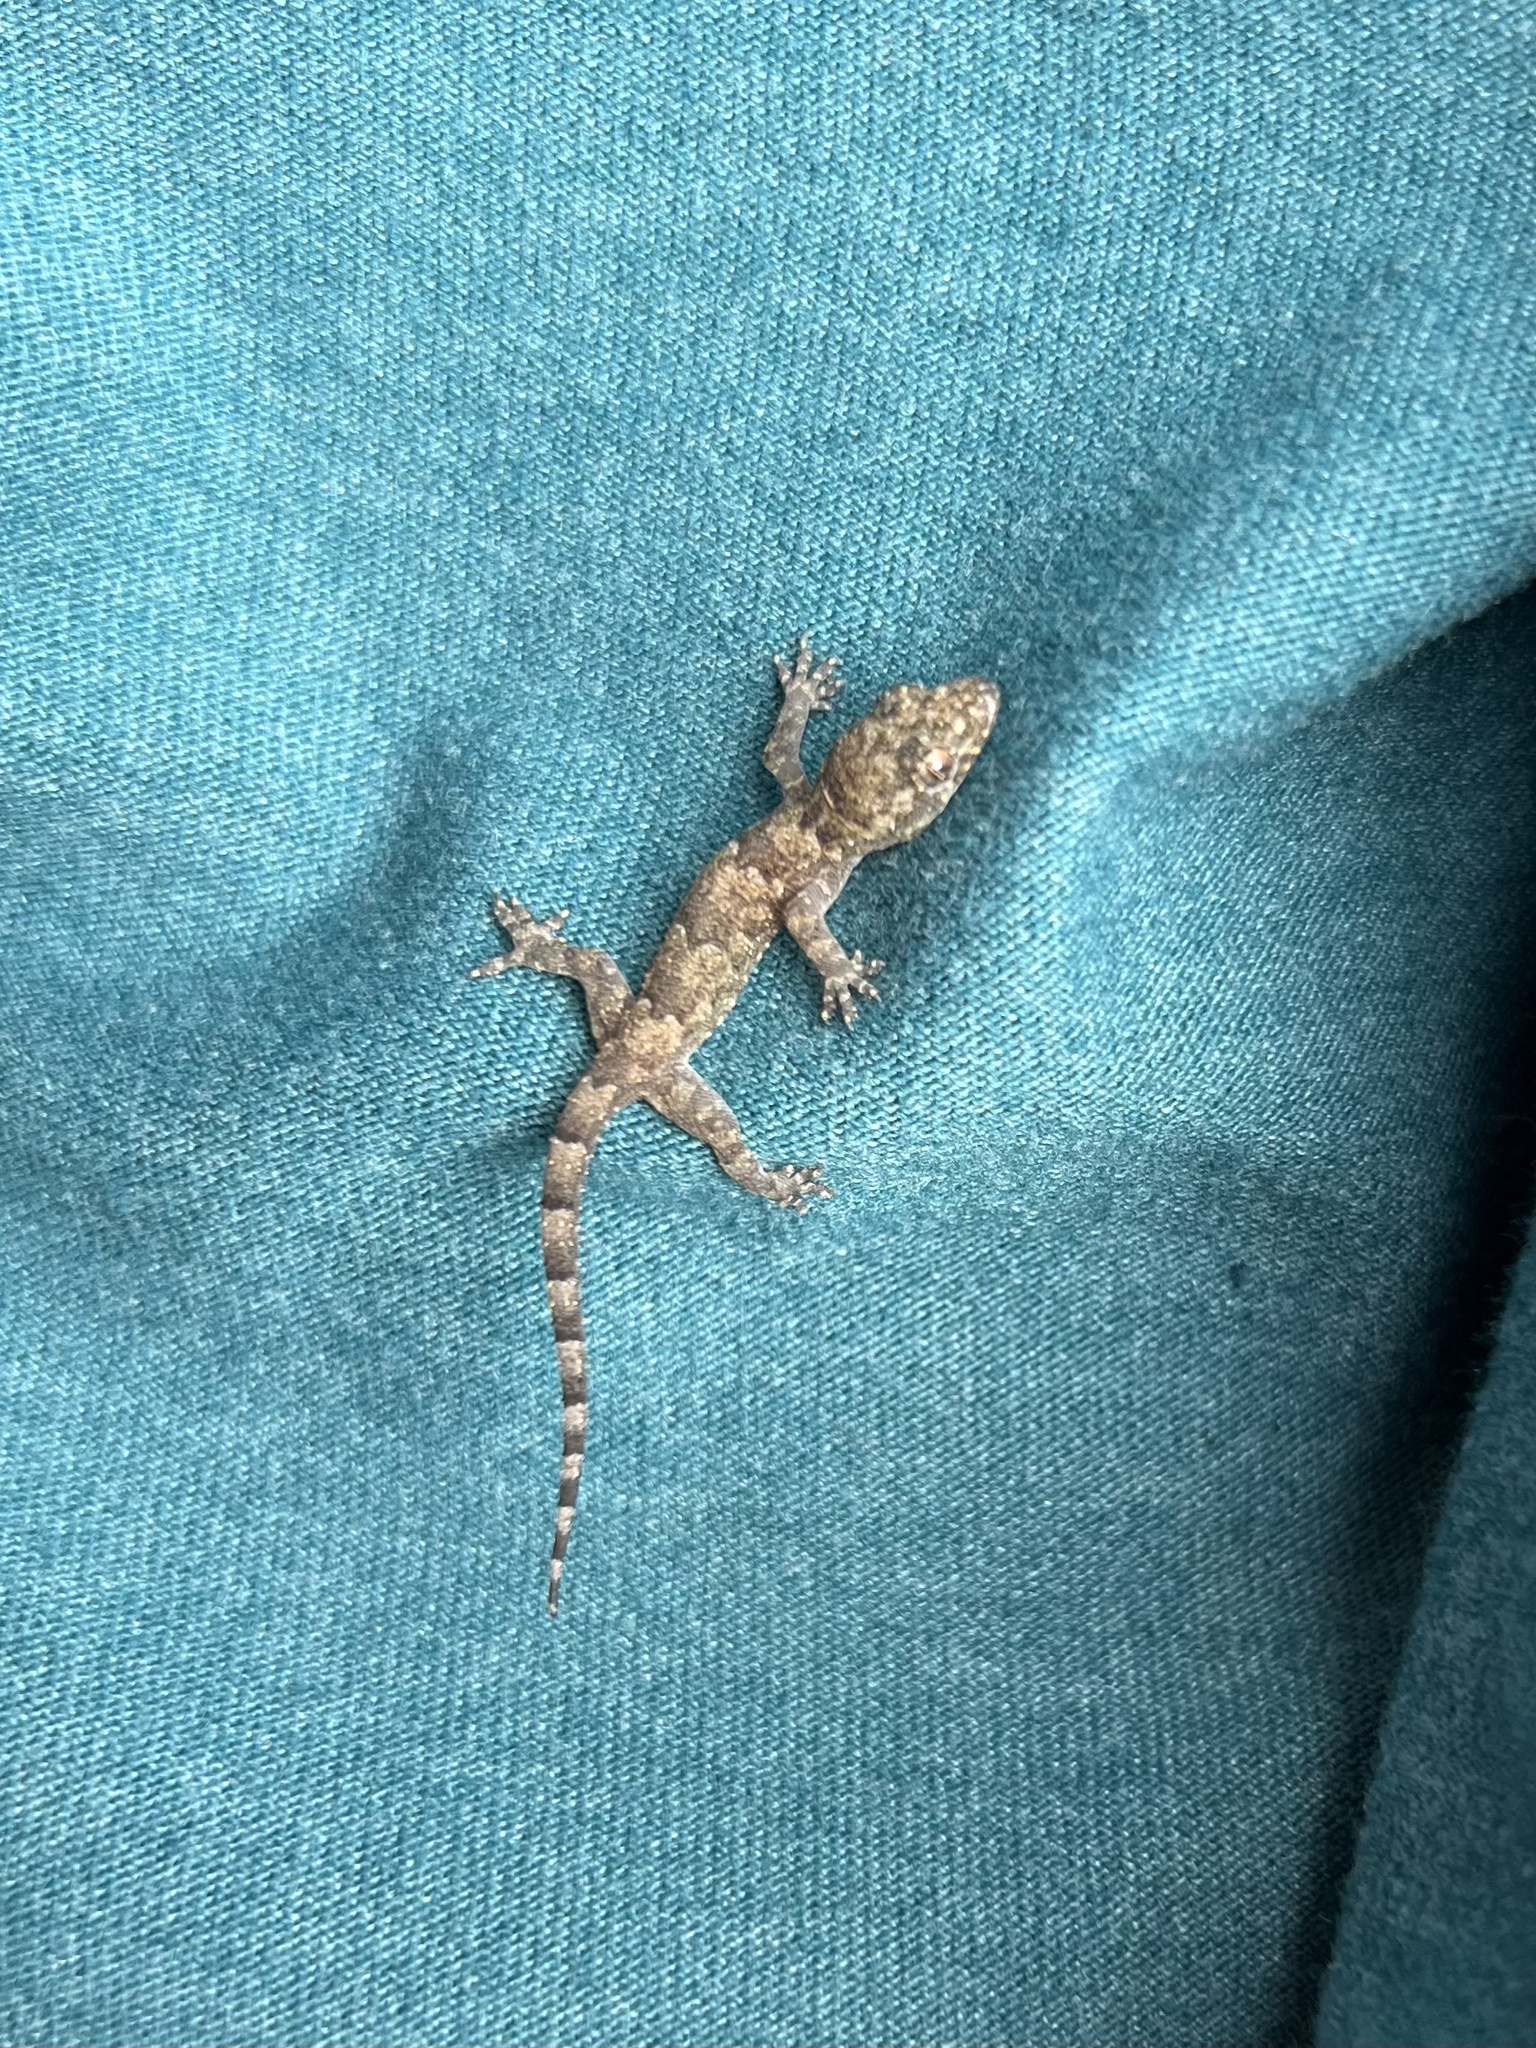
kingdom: Animalia
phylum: Chordata
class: Squamata
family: Gekkonidae
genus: Hemidactylus
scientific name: Hemidactylus mabouia
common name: House gecko
